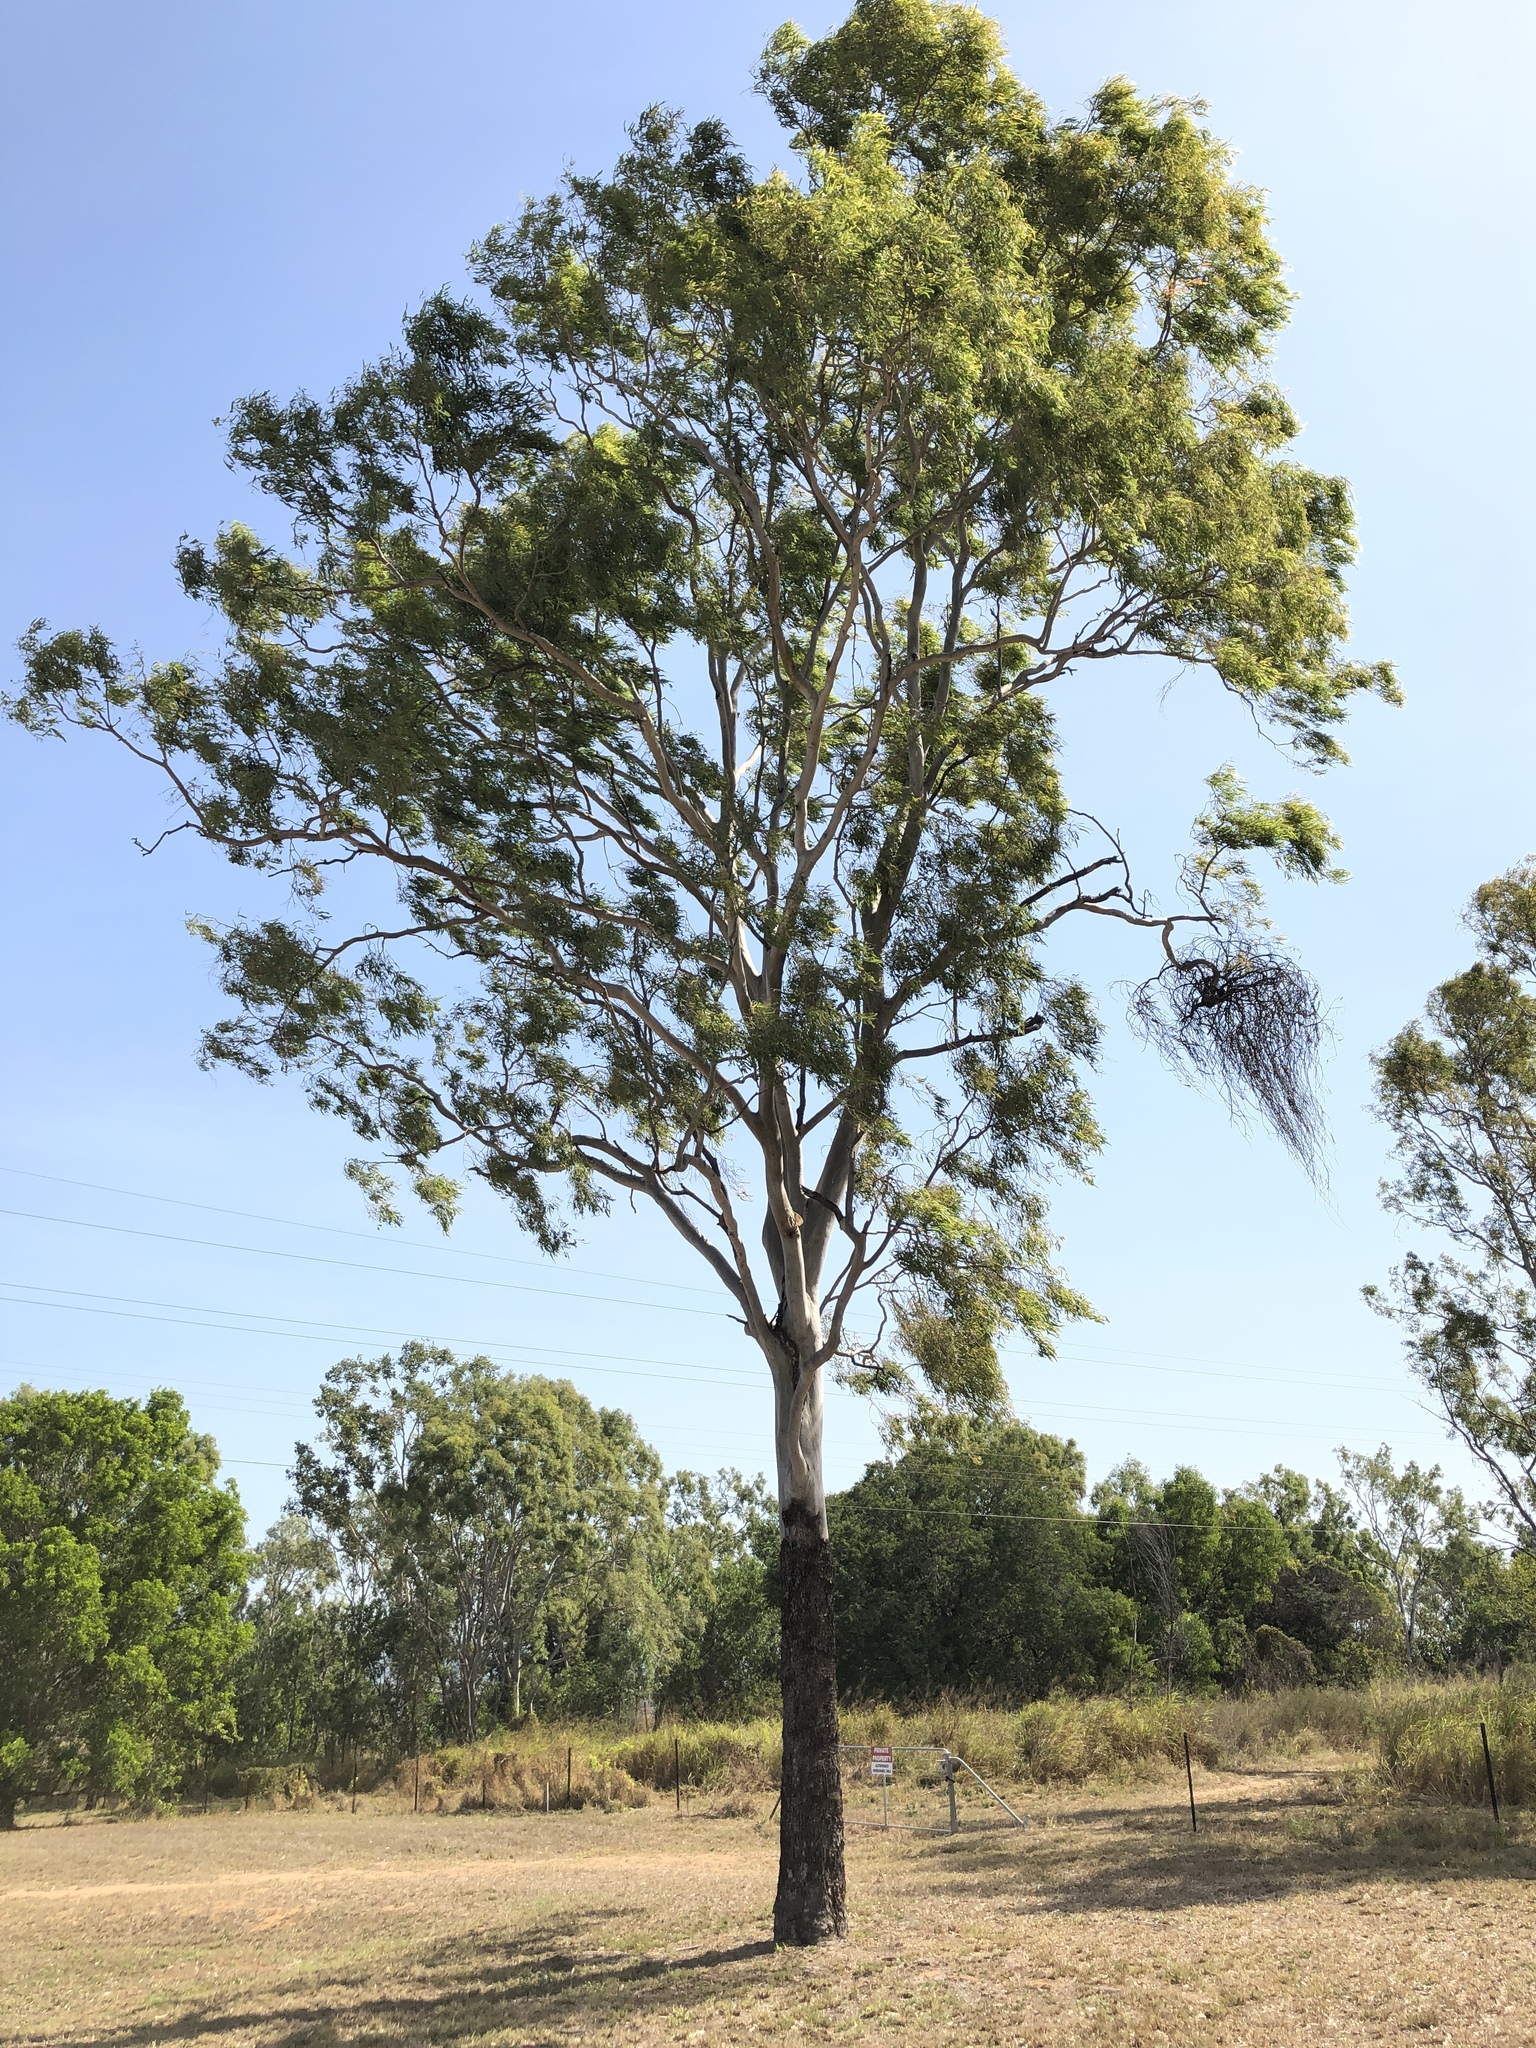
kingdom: Plantae
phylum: Tracheophyta
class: Magnoliopsida
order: Myrtales
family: Myrtaceae
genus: Corymbia
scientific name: Corymbia tessellaris
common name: Carbeen
